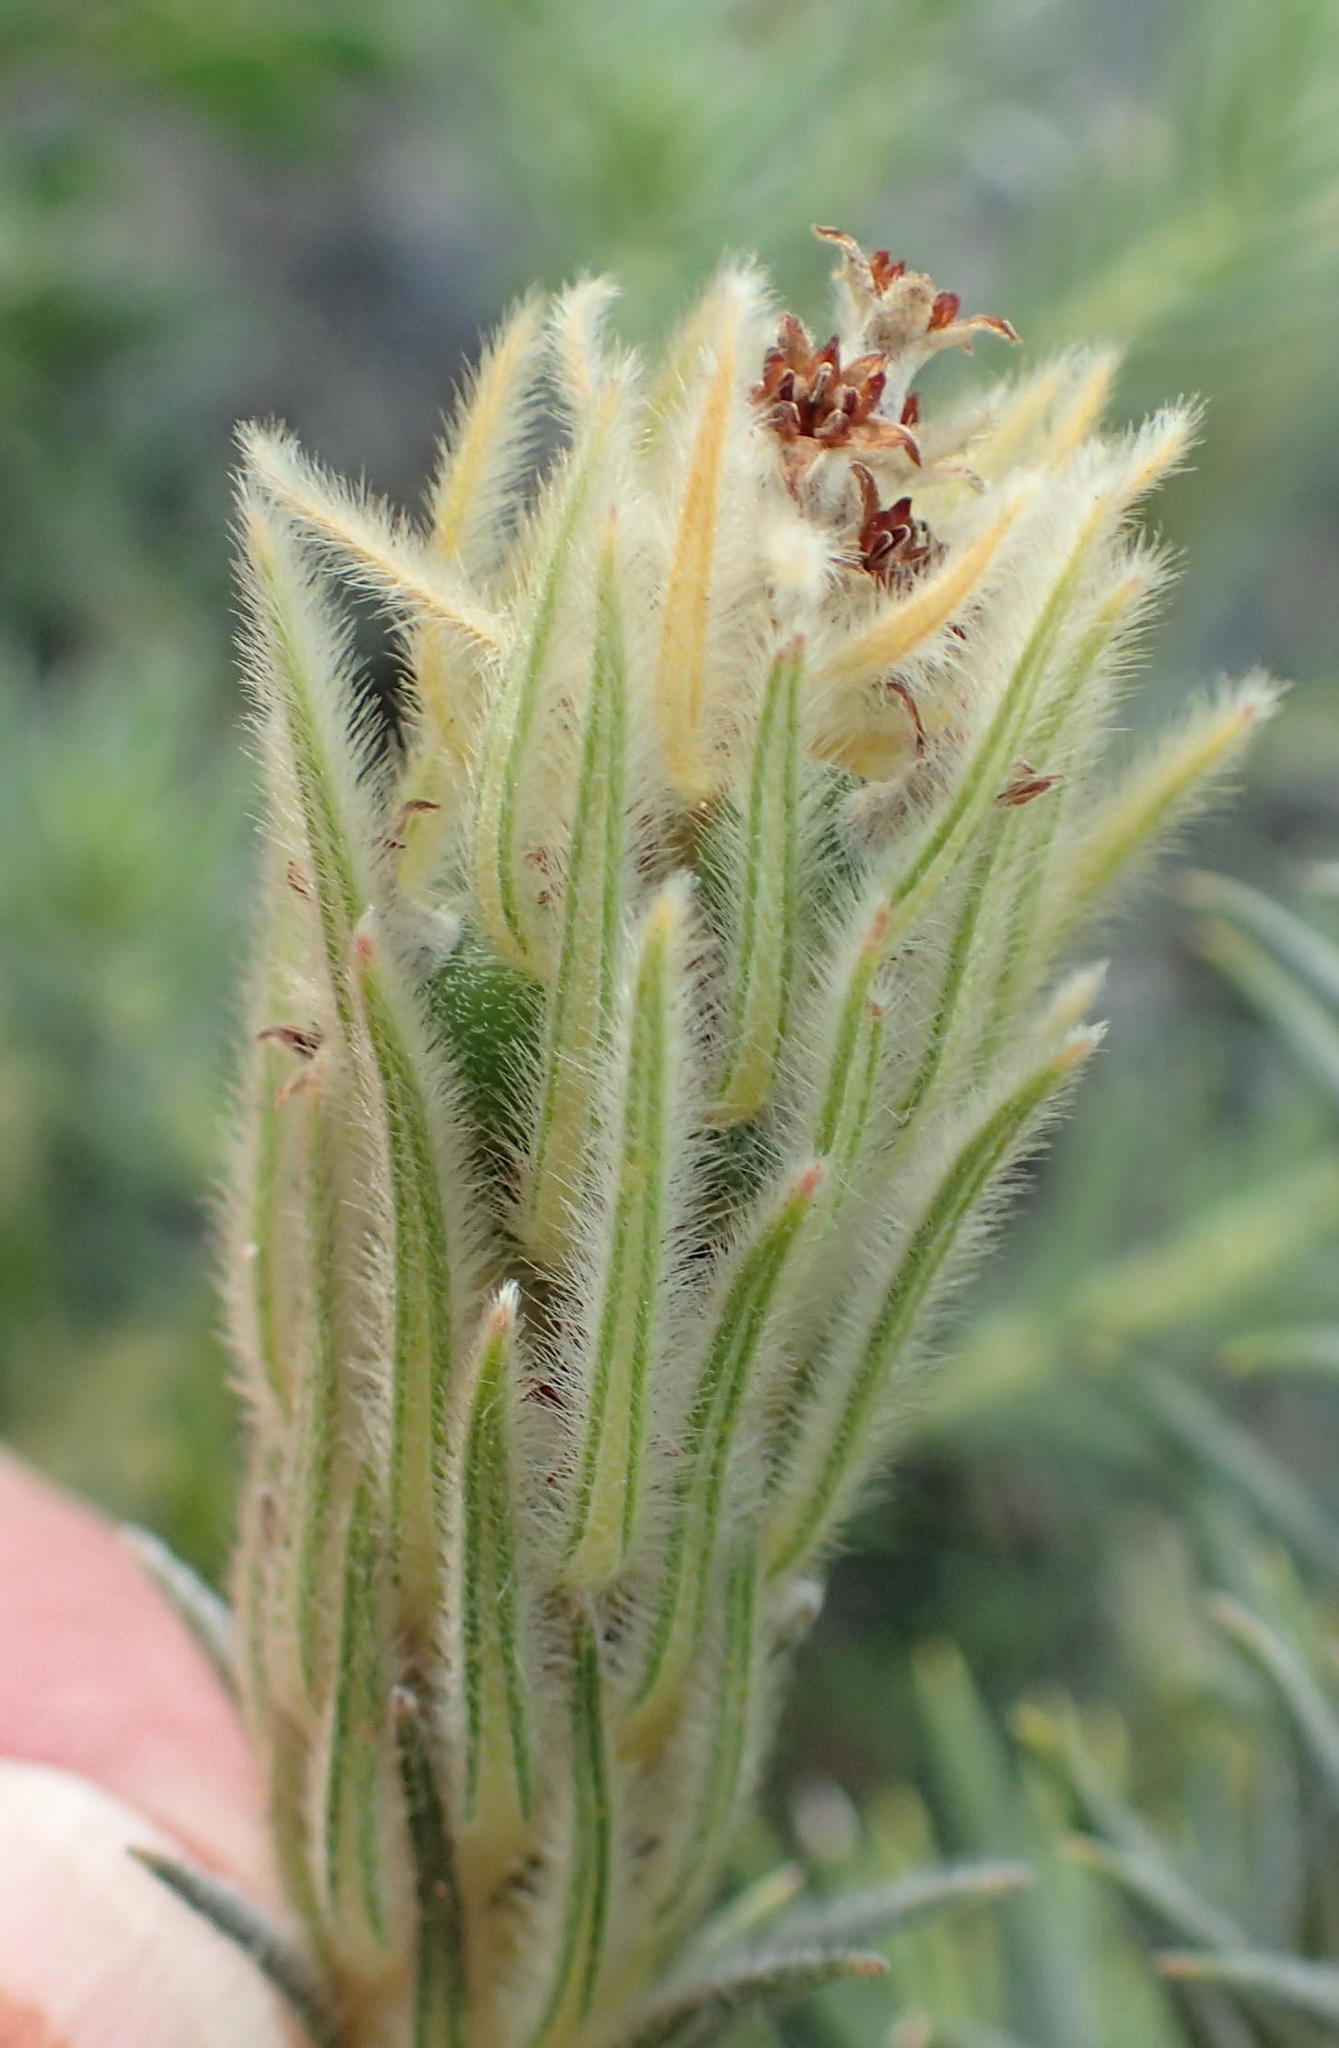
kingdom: Plantae
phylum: Tracheophyta
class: Magnoliopsida
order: Rosales
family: Rhamnaceae
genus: Phylica
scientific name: Phylica plumosa
